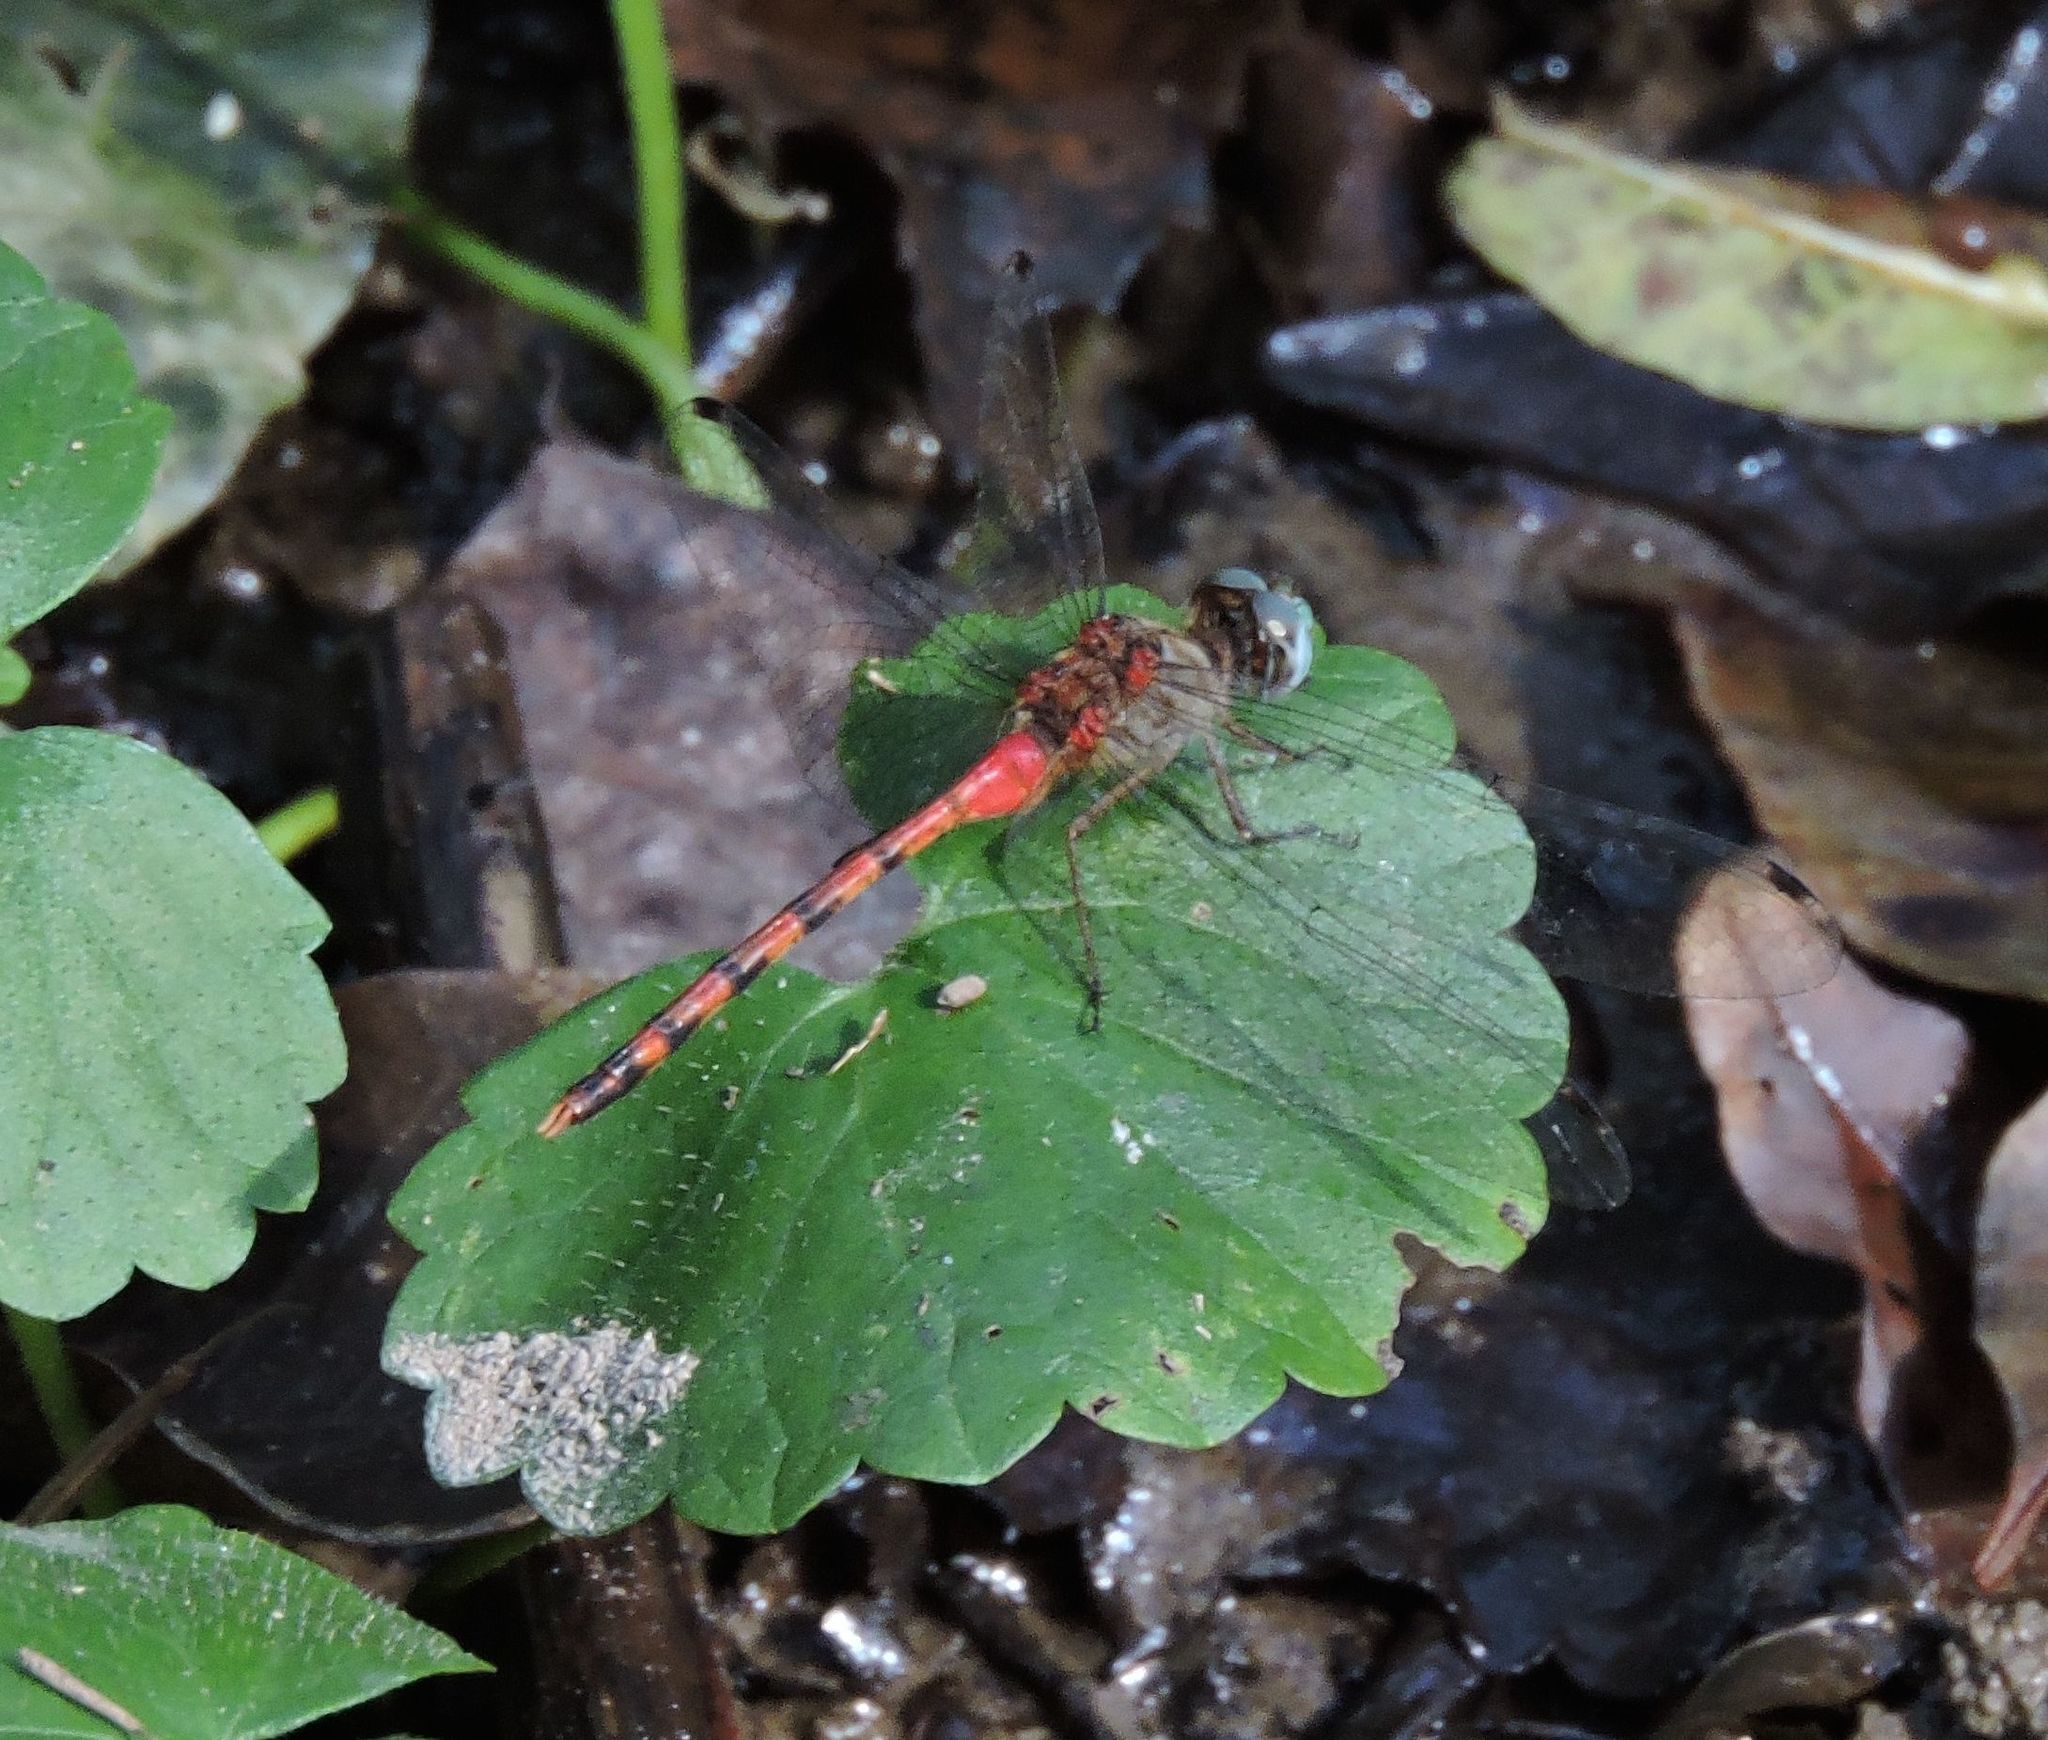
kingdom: Animalia
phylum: Arthropoda
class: Insecta
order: Odonata
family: Libellulidae
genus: Sympetrum
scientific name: Sympetrum ambiguum
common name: Blue-faced meadowhawk
